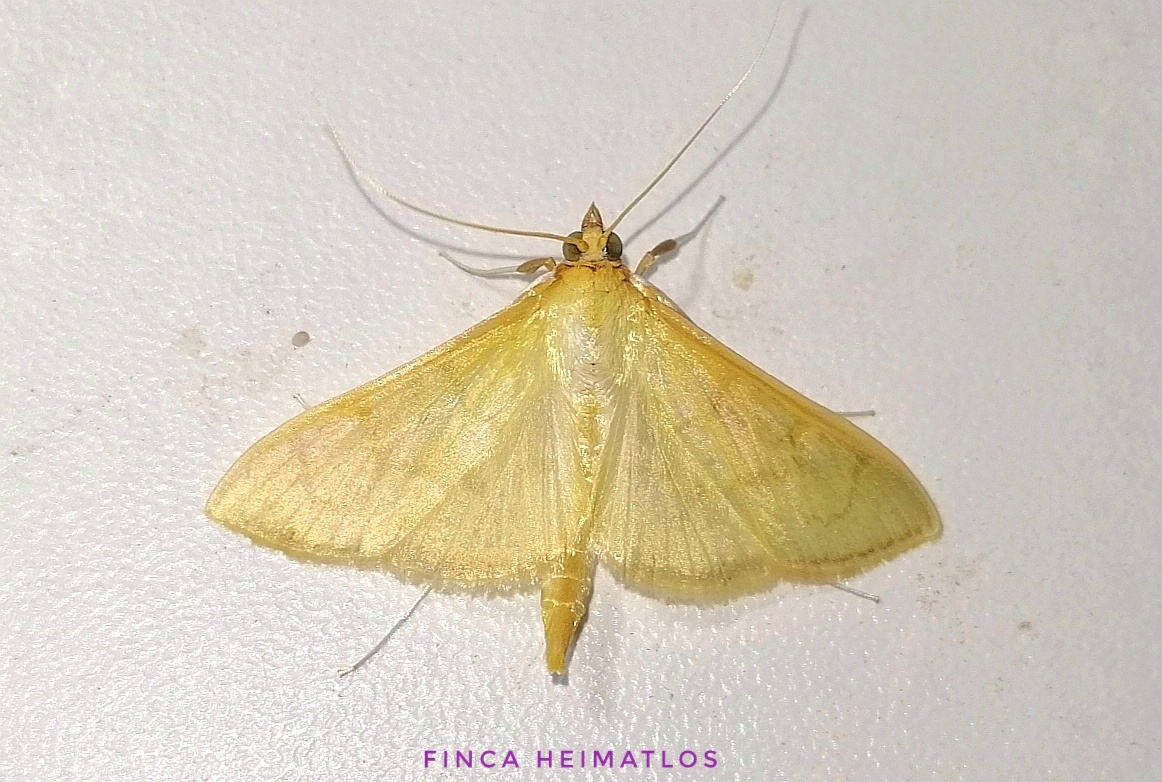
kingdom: Animalia
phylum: Arthropoda
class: Insecta
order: Lepidoptera
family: Crambidae
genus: Condylorrhiza
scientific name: Condylorrhiza vestigialis
